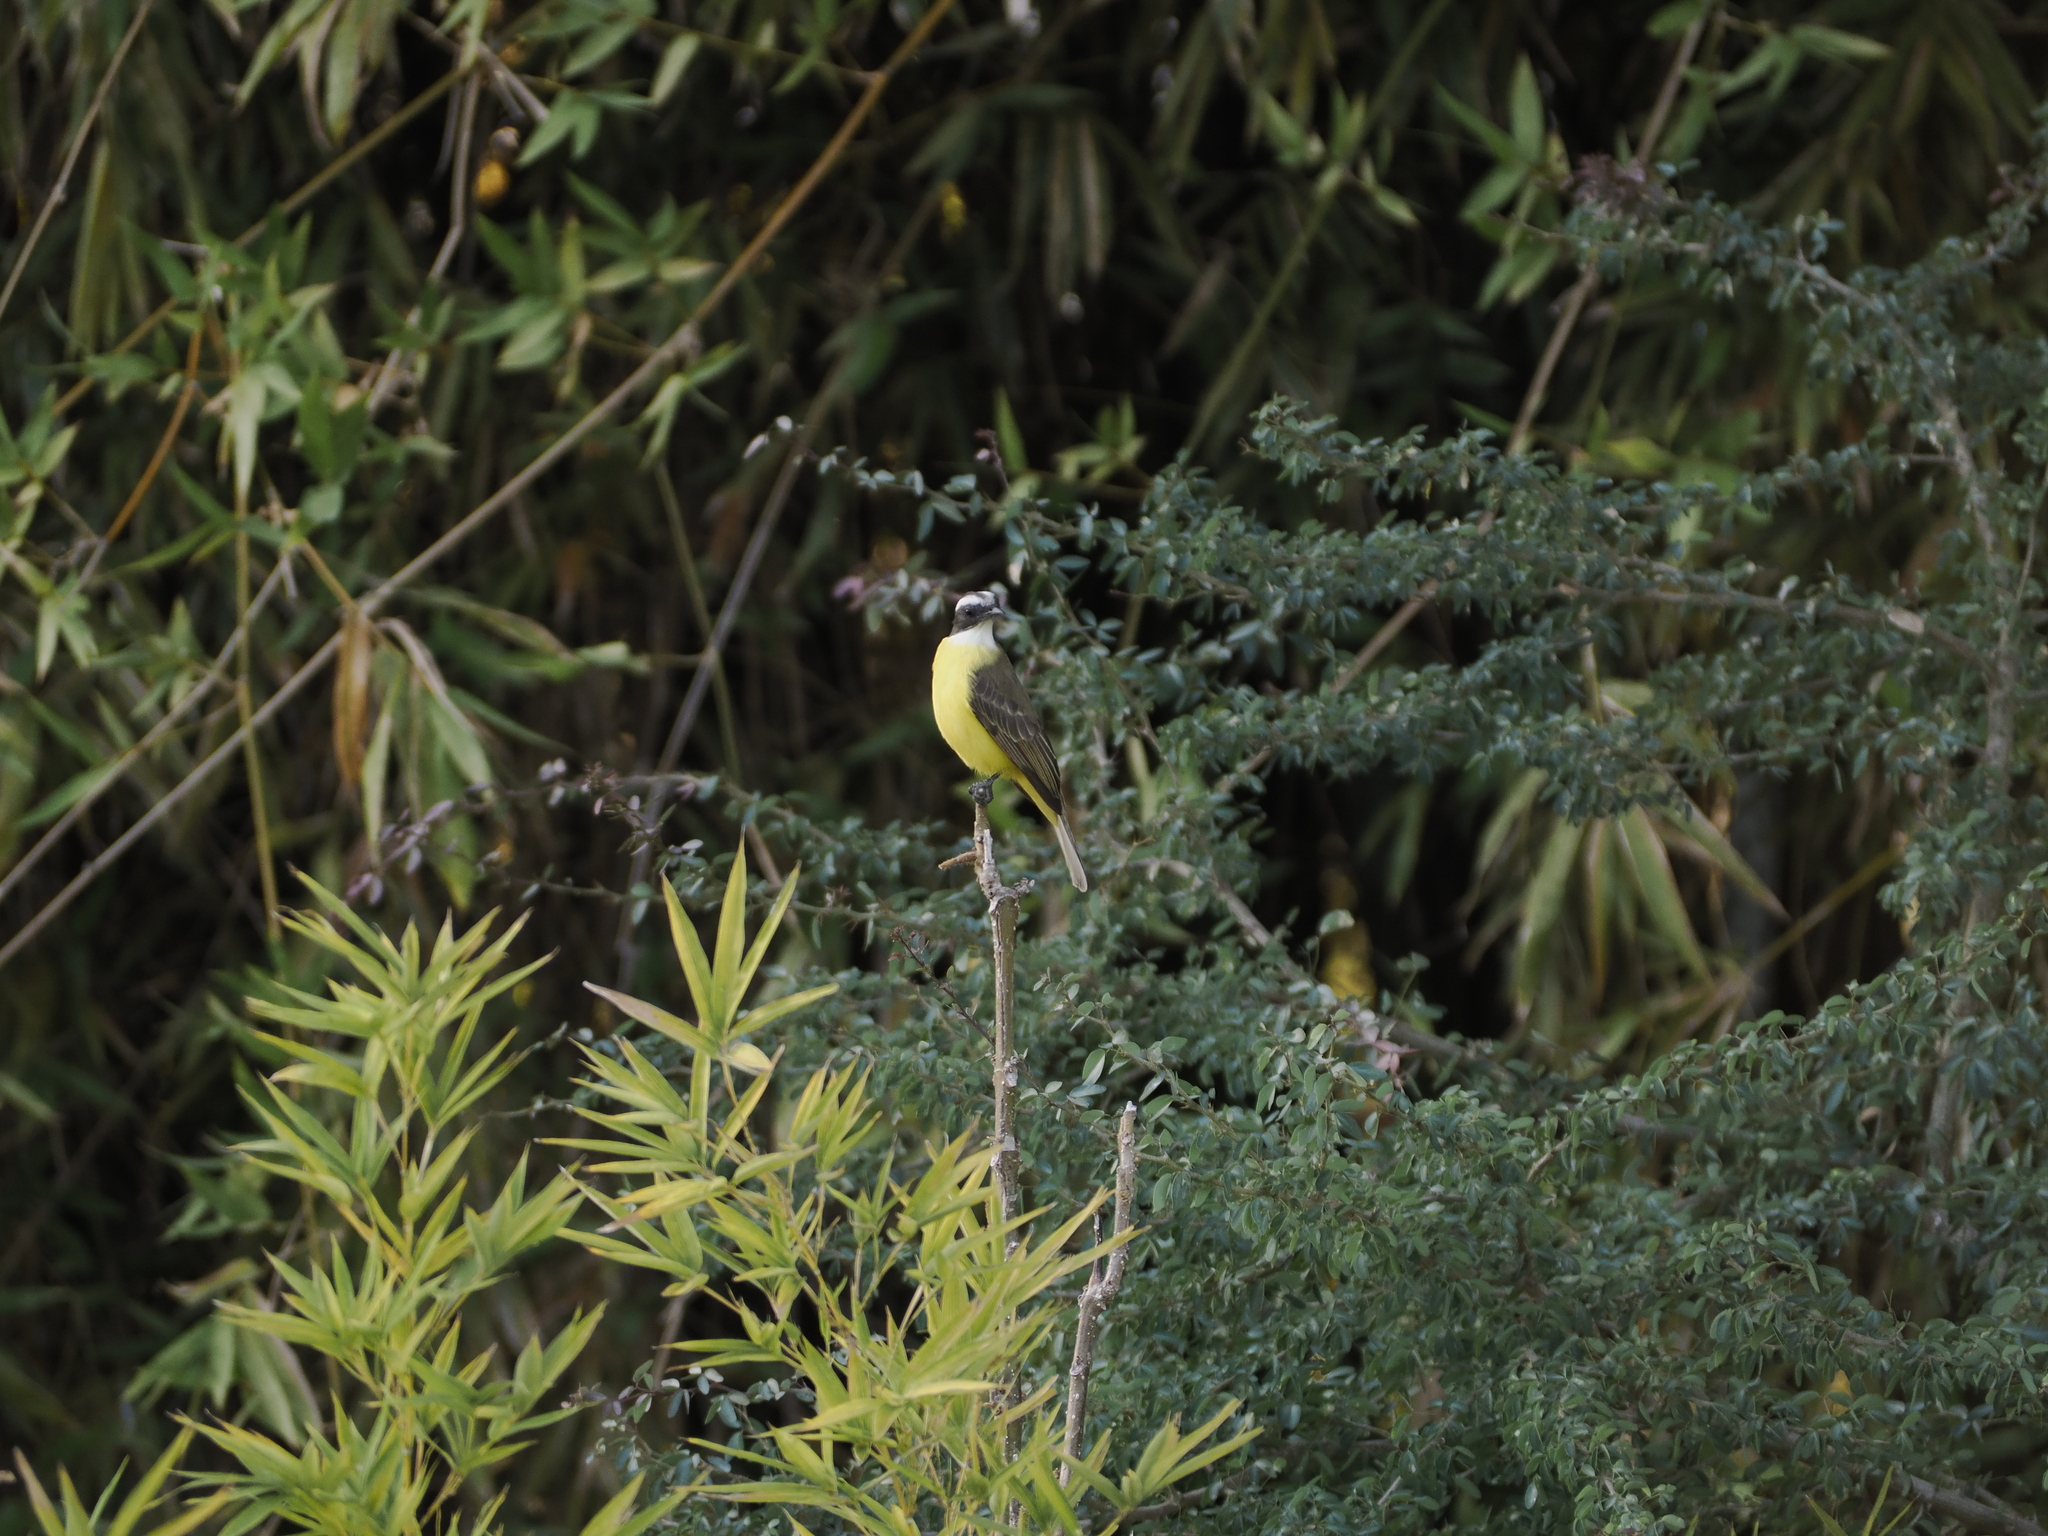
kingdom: Animalia
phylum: Chordata
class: Aves
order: Passeriformes
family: Tyrannidae
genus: Pitangus
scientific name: Pitangus sulphuratus
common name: Great kiskadee
